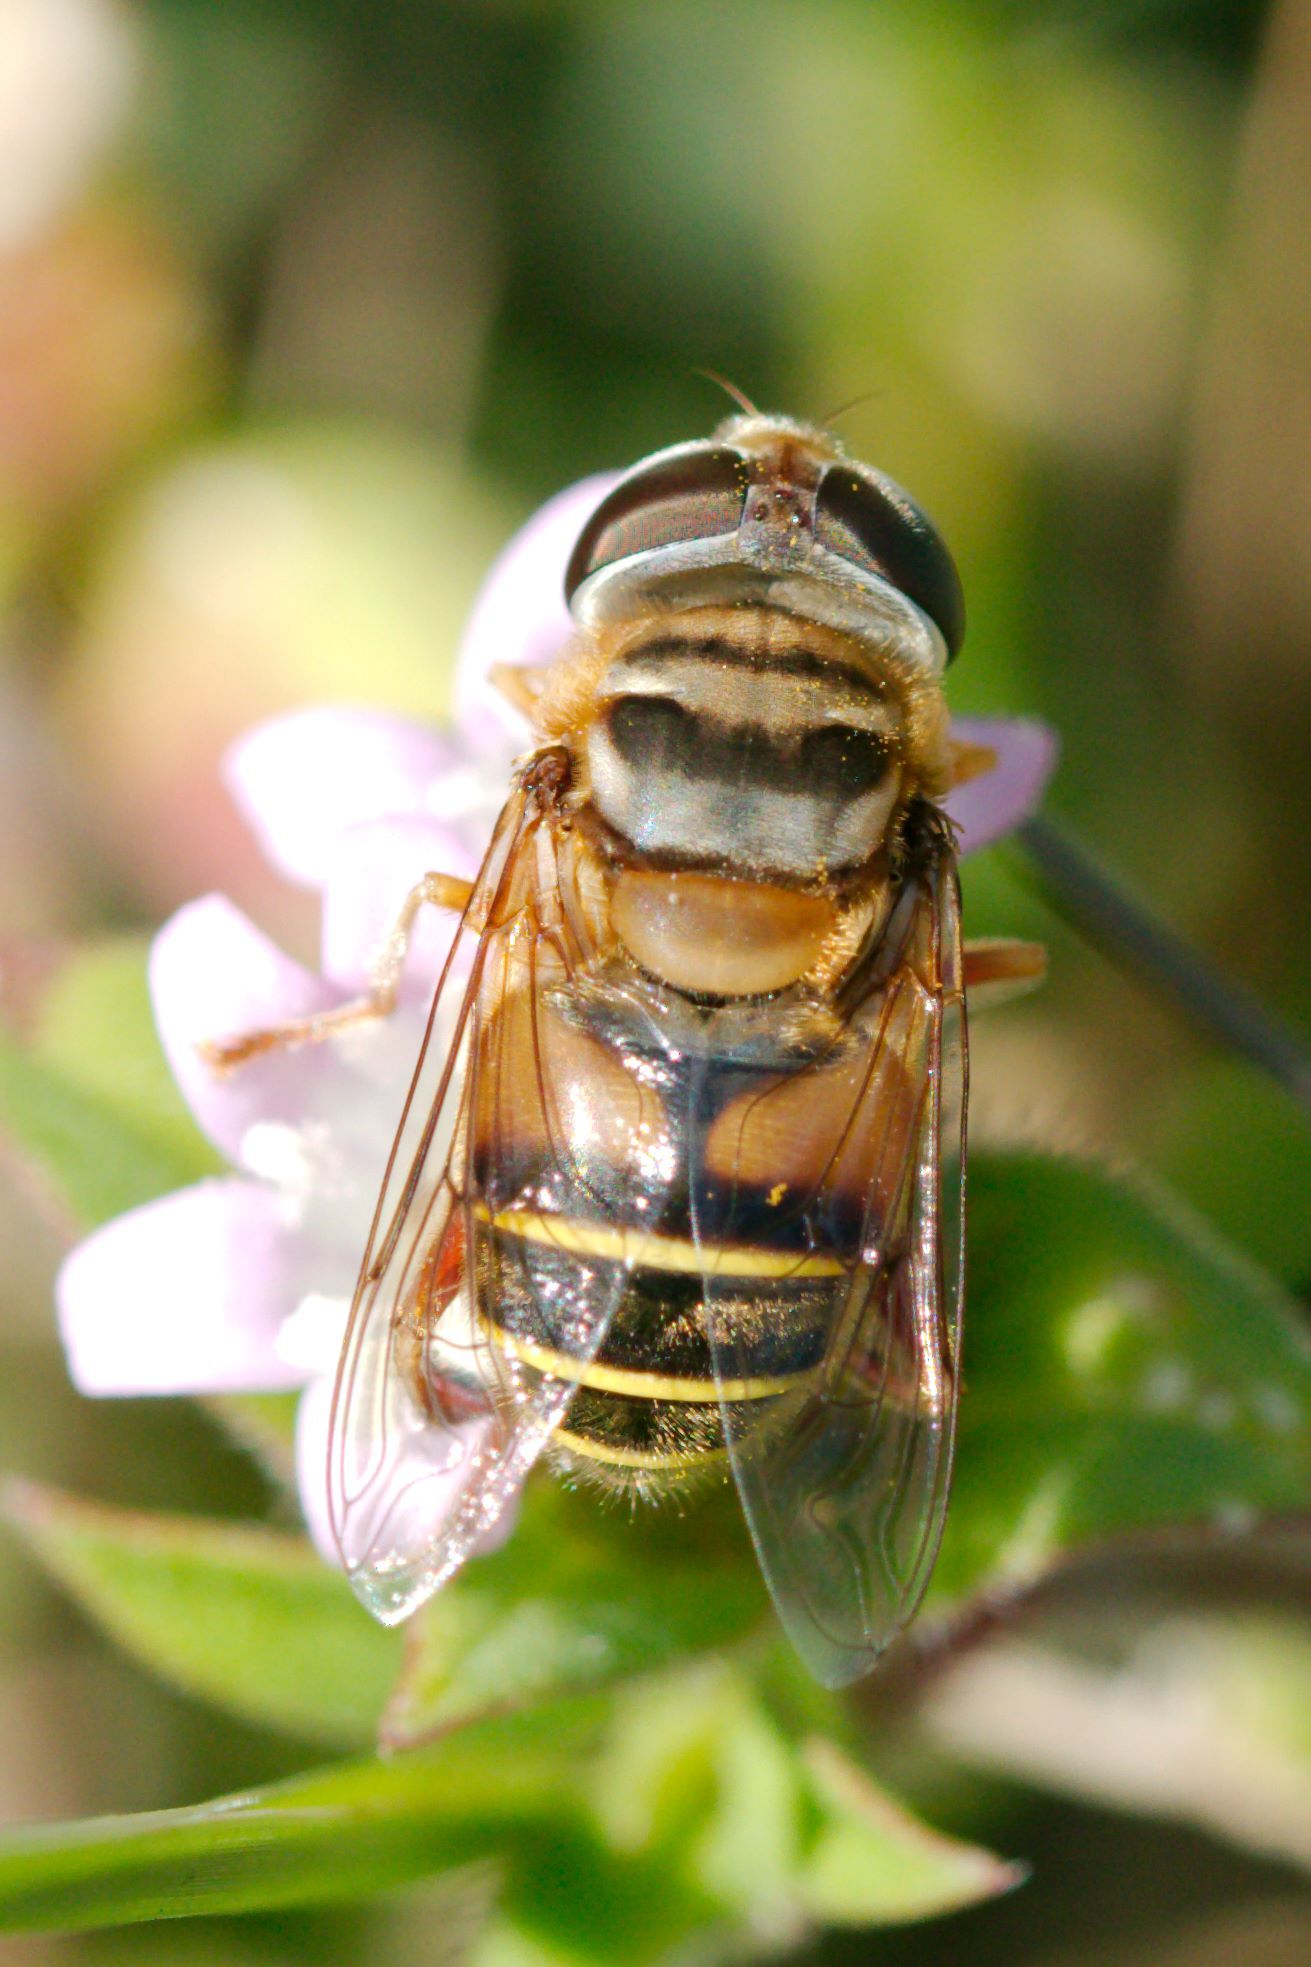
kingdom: Animalia
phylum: Arthropoda
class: Insecta
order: Diptera
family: Syrphidae
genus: Palpada
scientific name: Palpada vinetorum
